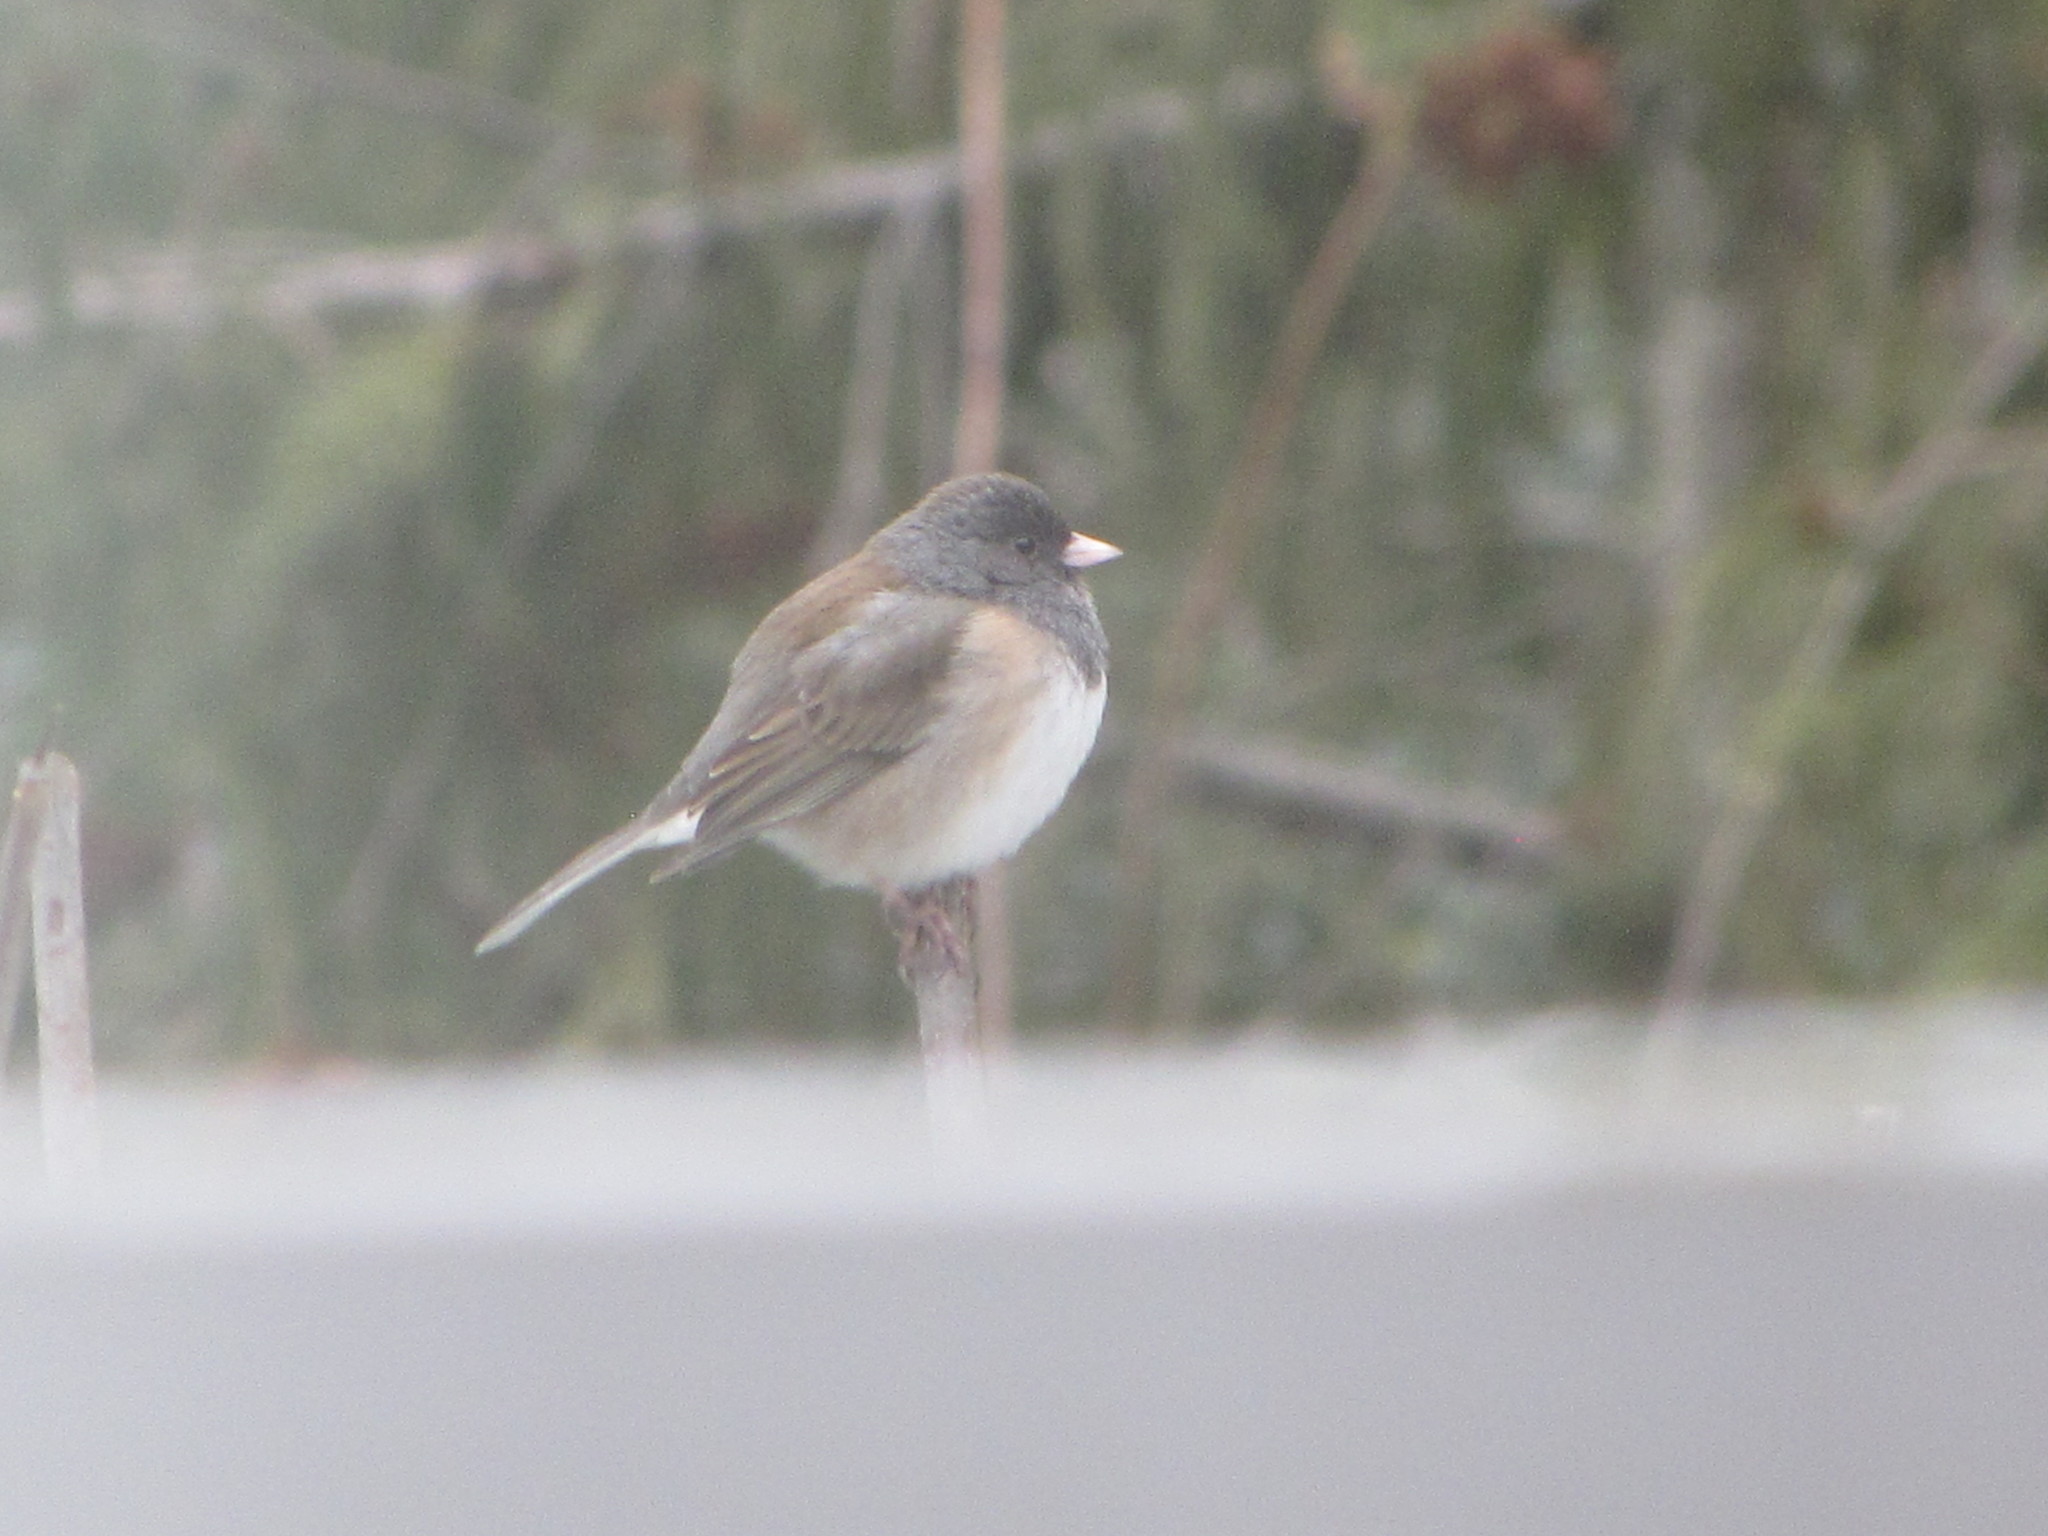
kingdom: Animalia
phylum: Chordata
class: Aves
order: Passeriformes
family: Passerellidae
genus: Junco
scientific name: Junco hyemalis
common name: Dark-eyed junco
